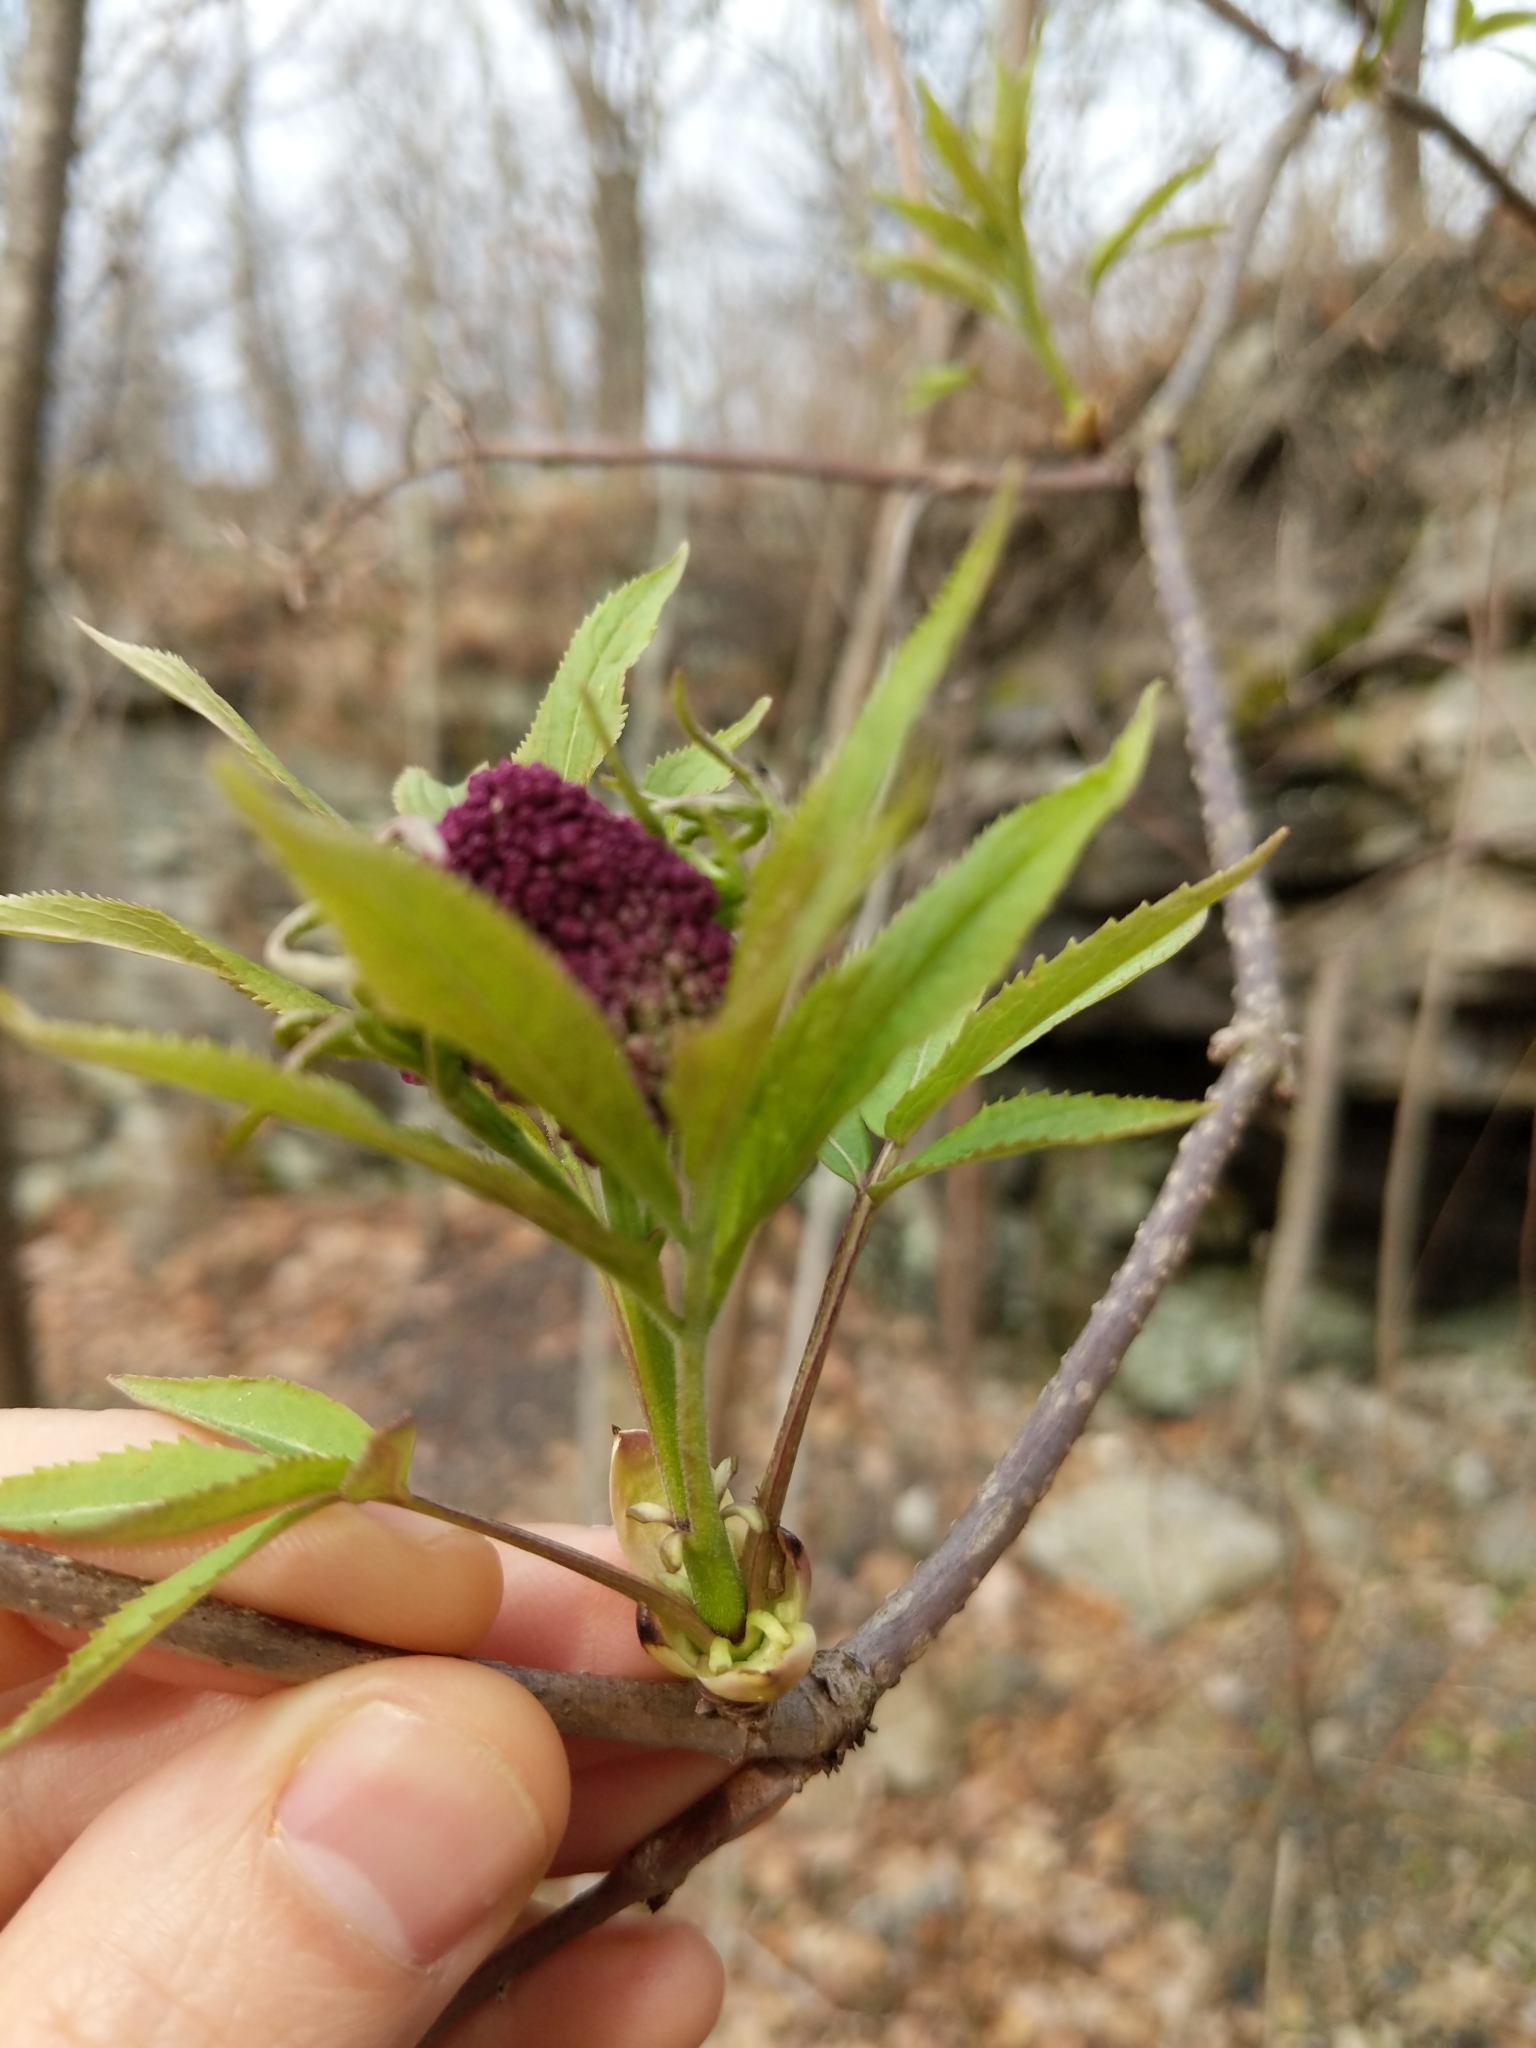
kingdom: Plantae
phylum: Tracheophyta
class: Magnoliopsida
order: Dipsacales
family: Viburnaceae
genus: Sambucus
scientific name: Sambucus racemosa
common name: Red-berried elder
